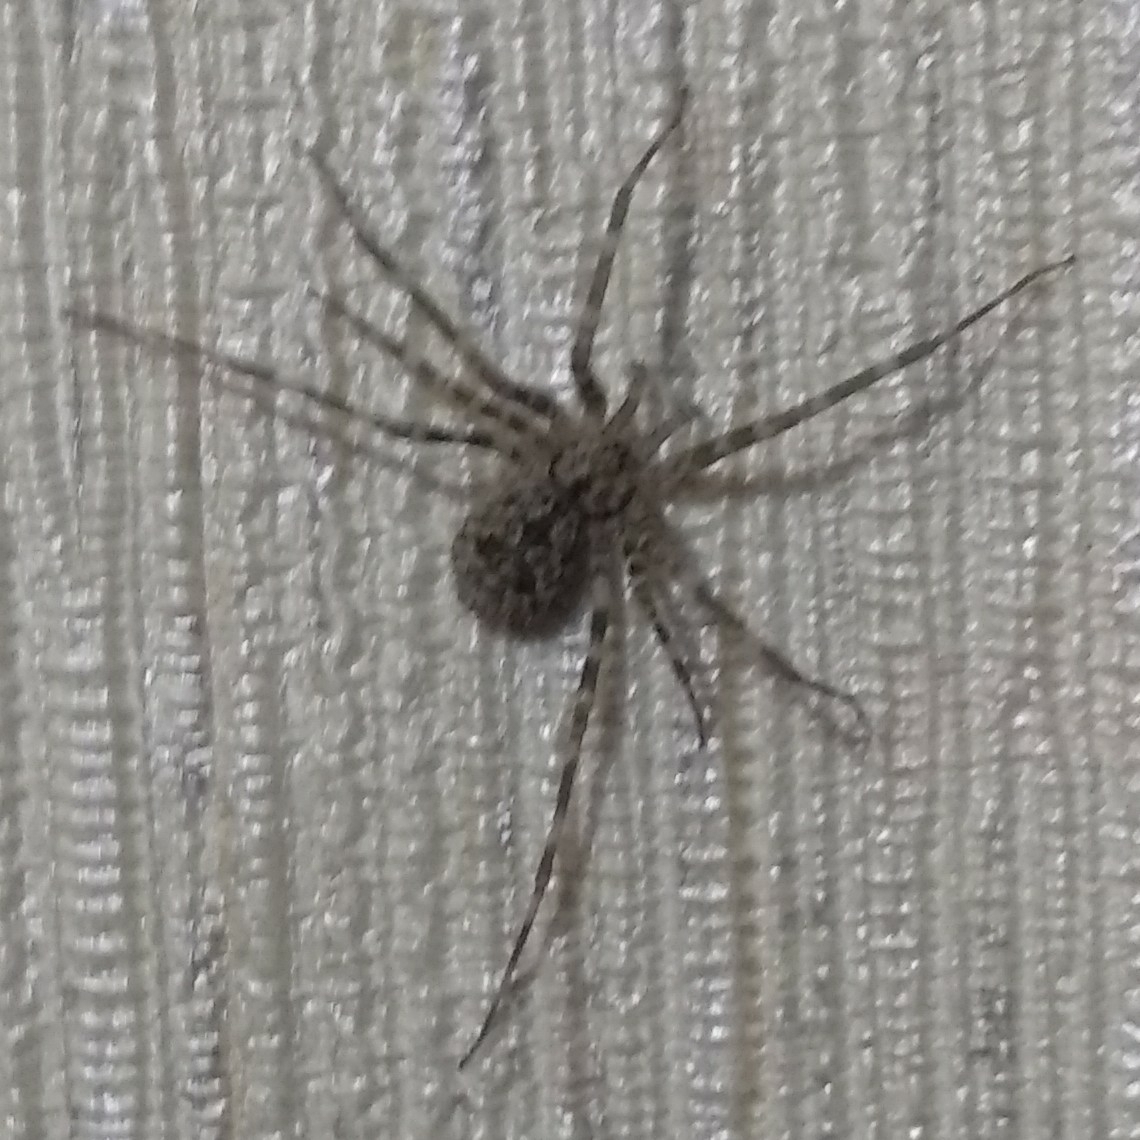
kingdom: Animalia
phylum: Arthropoda
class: Arachnida
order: Araneae
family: Hersiliidae
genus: Ovtsharenkoia
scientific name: Ovtsharenkoia pallida
